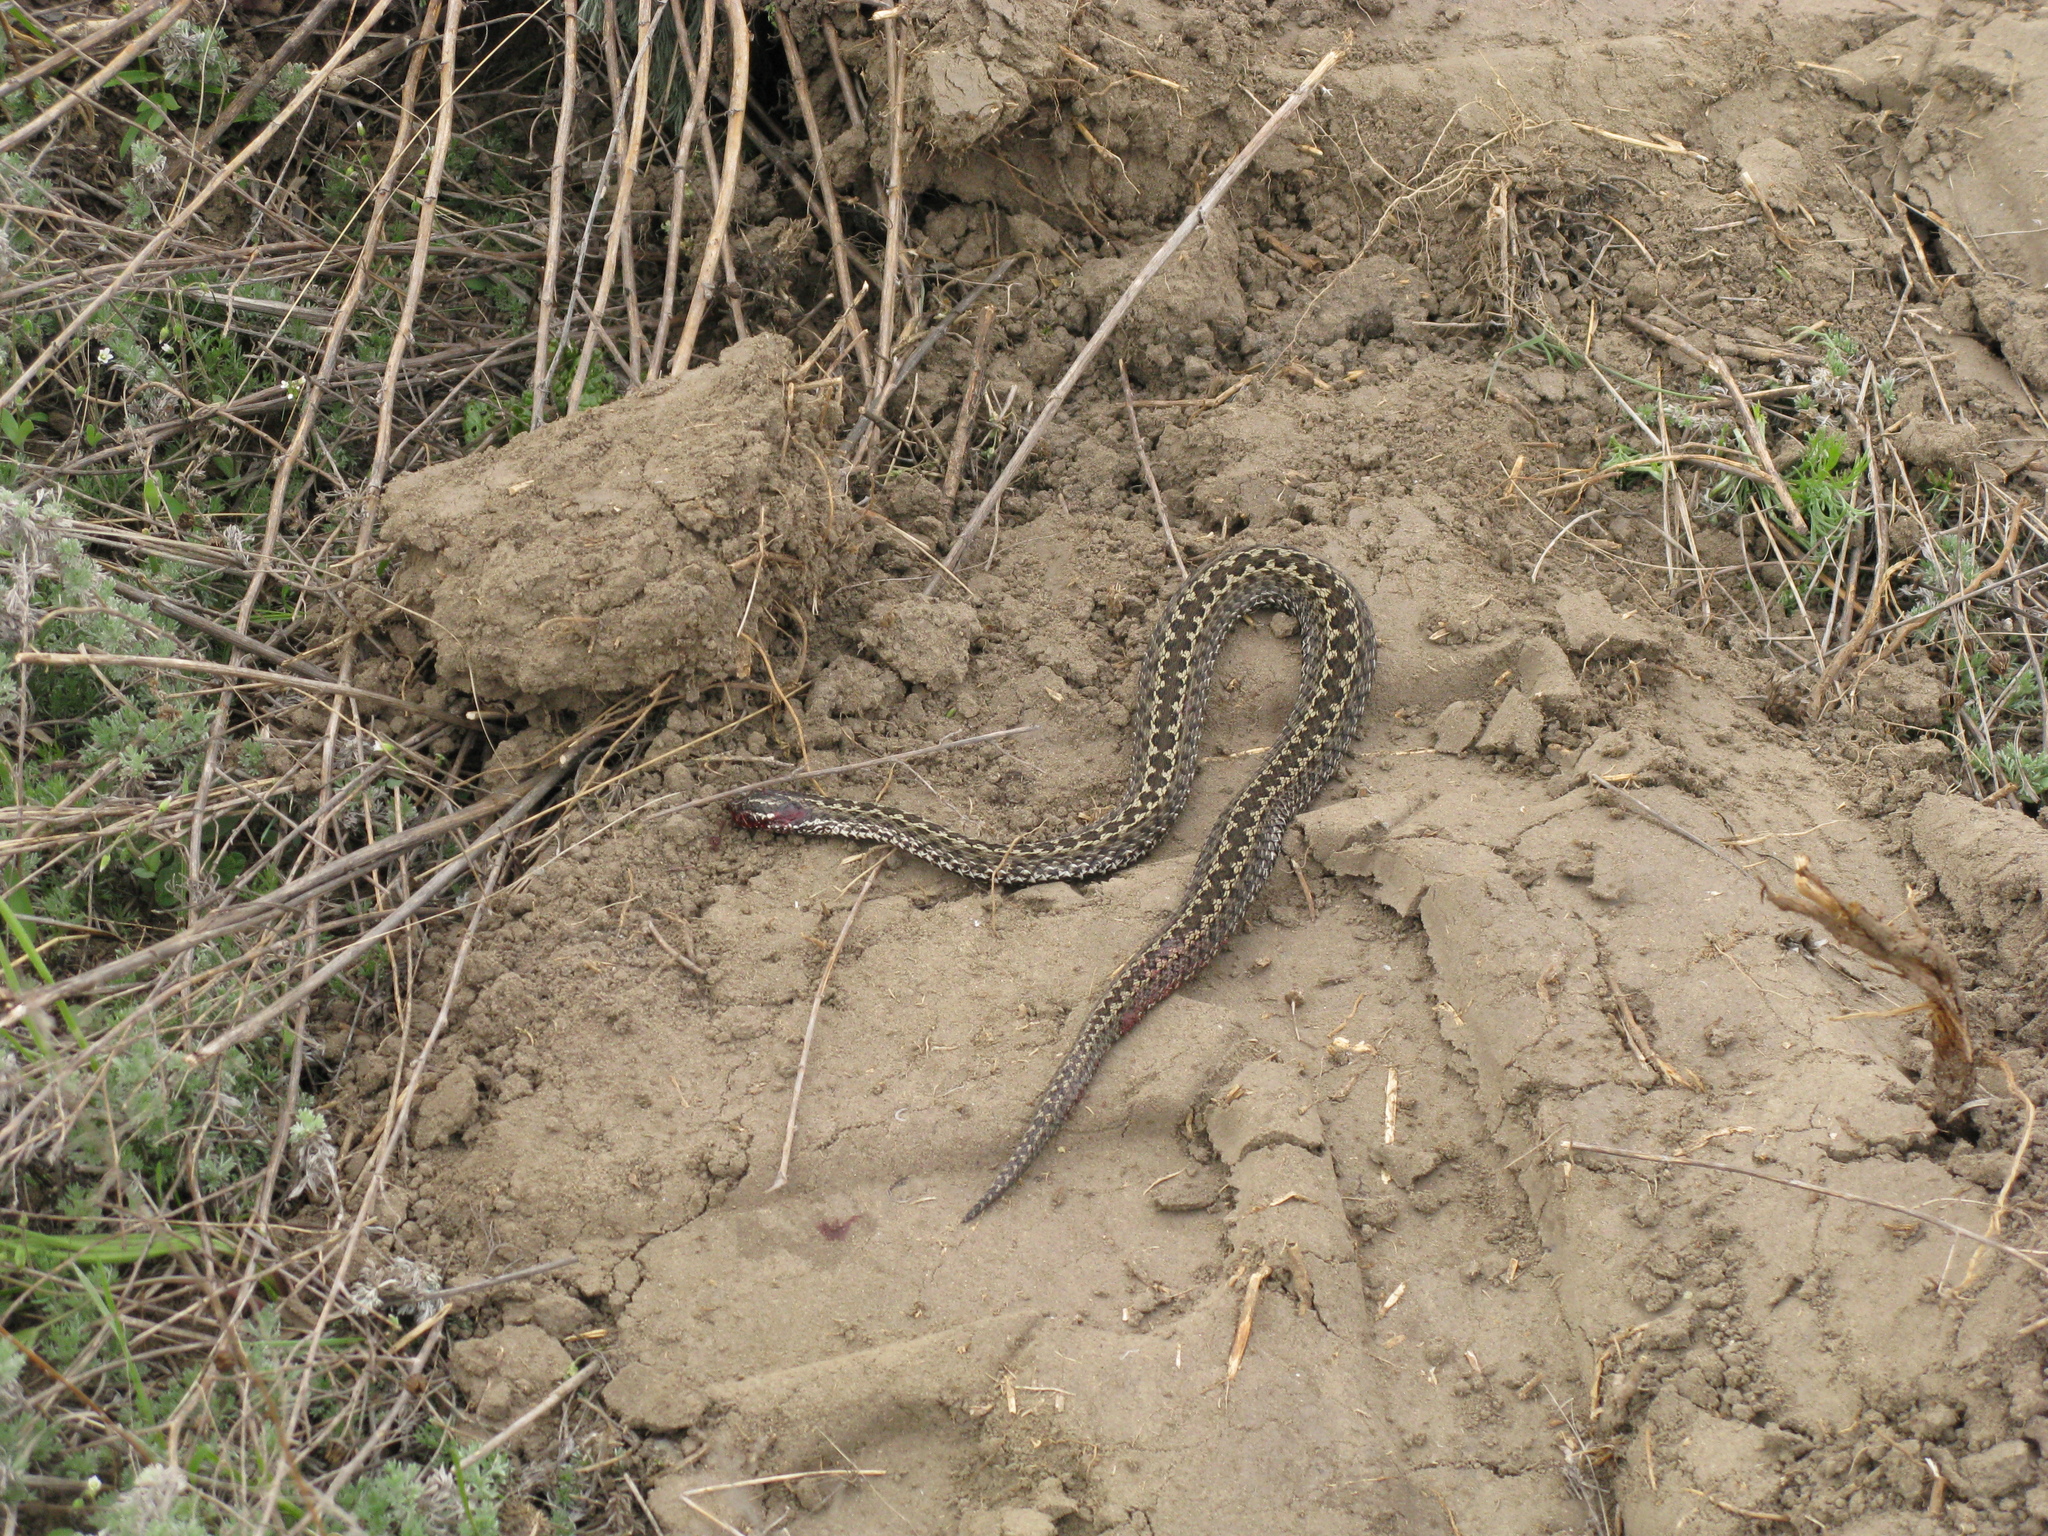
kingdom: Animalia
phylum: Chordata
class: Squamata
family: Viperidae
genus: Vipera
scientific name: Vipera renardi
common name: Eastern steppe viper
